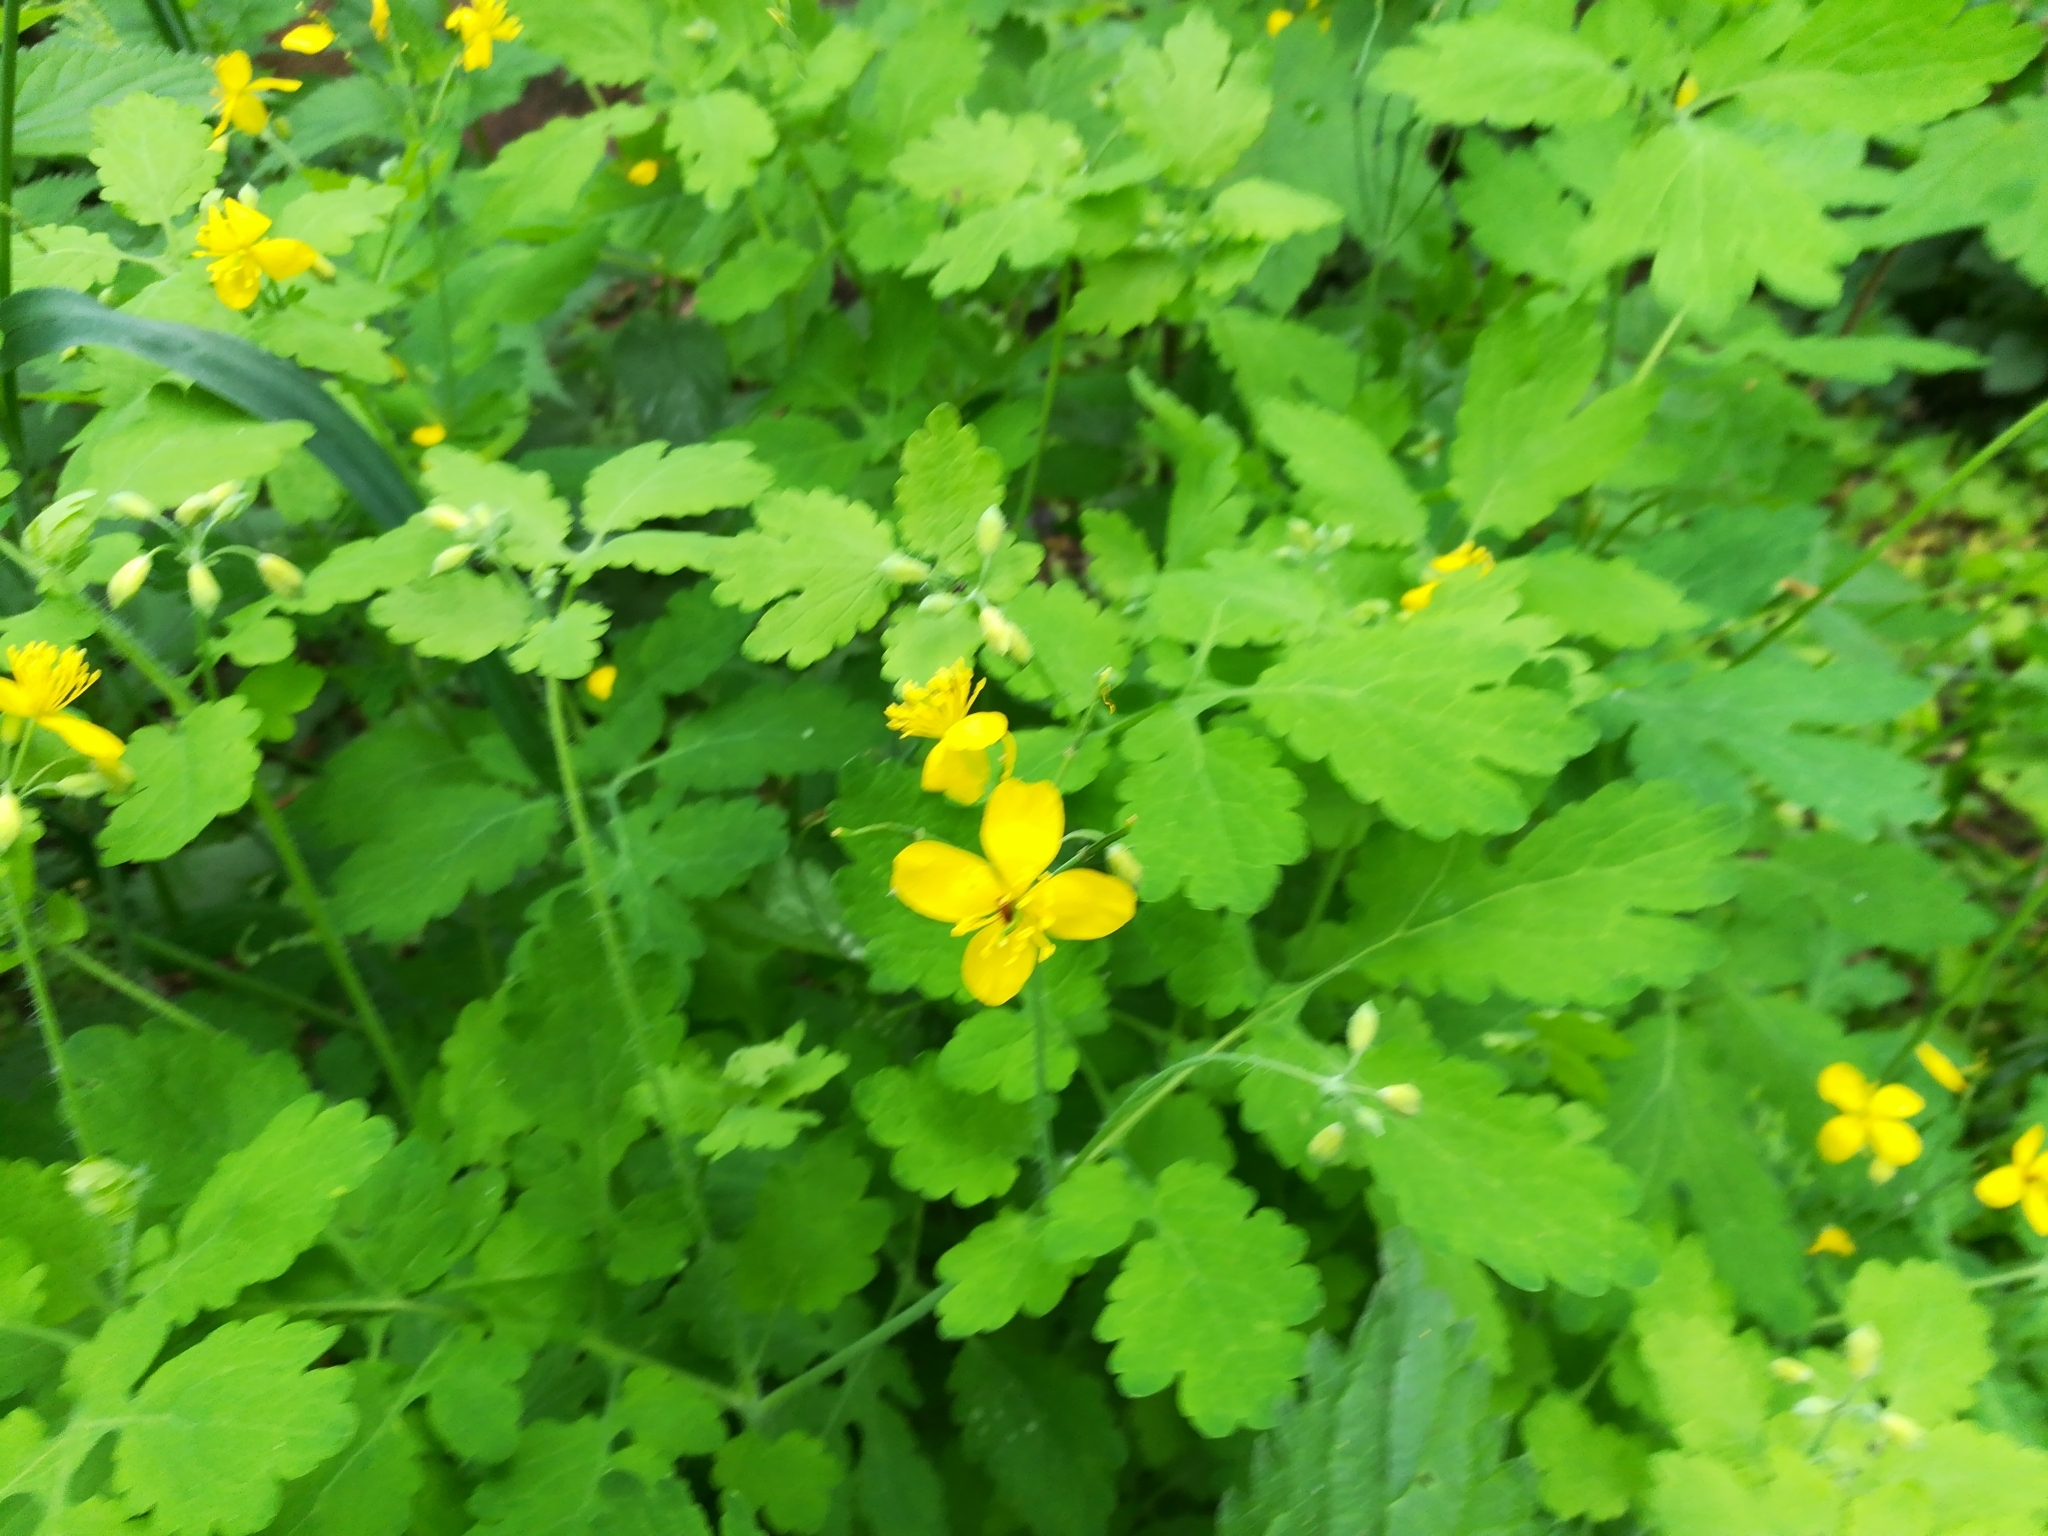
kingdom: Plantae
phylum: Tracheophyta
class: Magnoliopsida
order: Ranunculales
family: Papaveraceae
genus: Chelidonium
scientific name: Chelidonium majus
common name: Greater celandine
